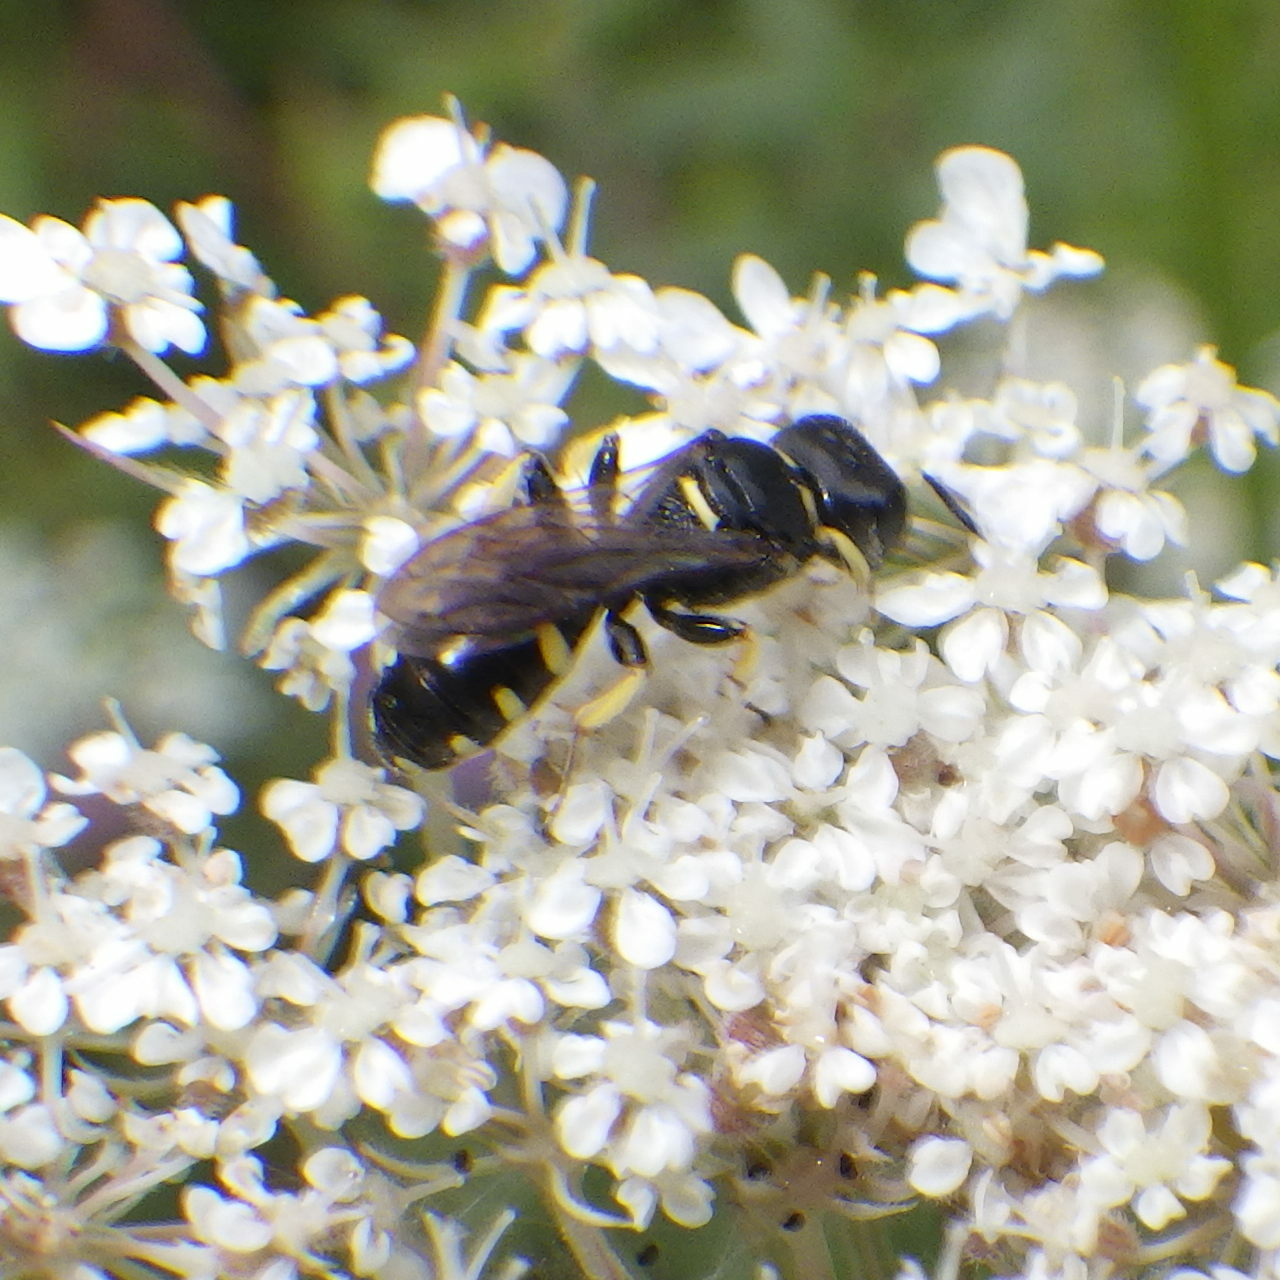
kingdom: Animalia
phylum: Arthropoda
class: Insecta
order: Hymenoptera
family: Crabronidae
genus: Ectemnius
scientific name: Ectemnius borealis
